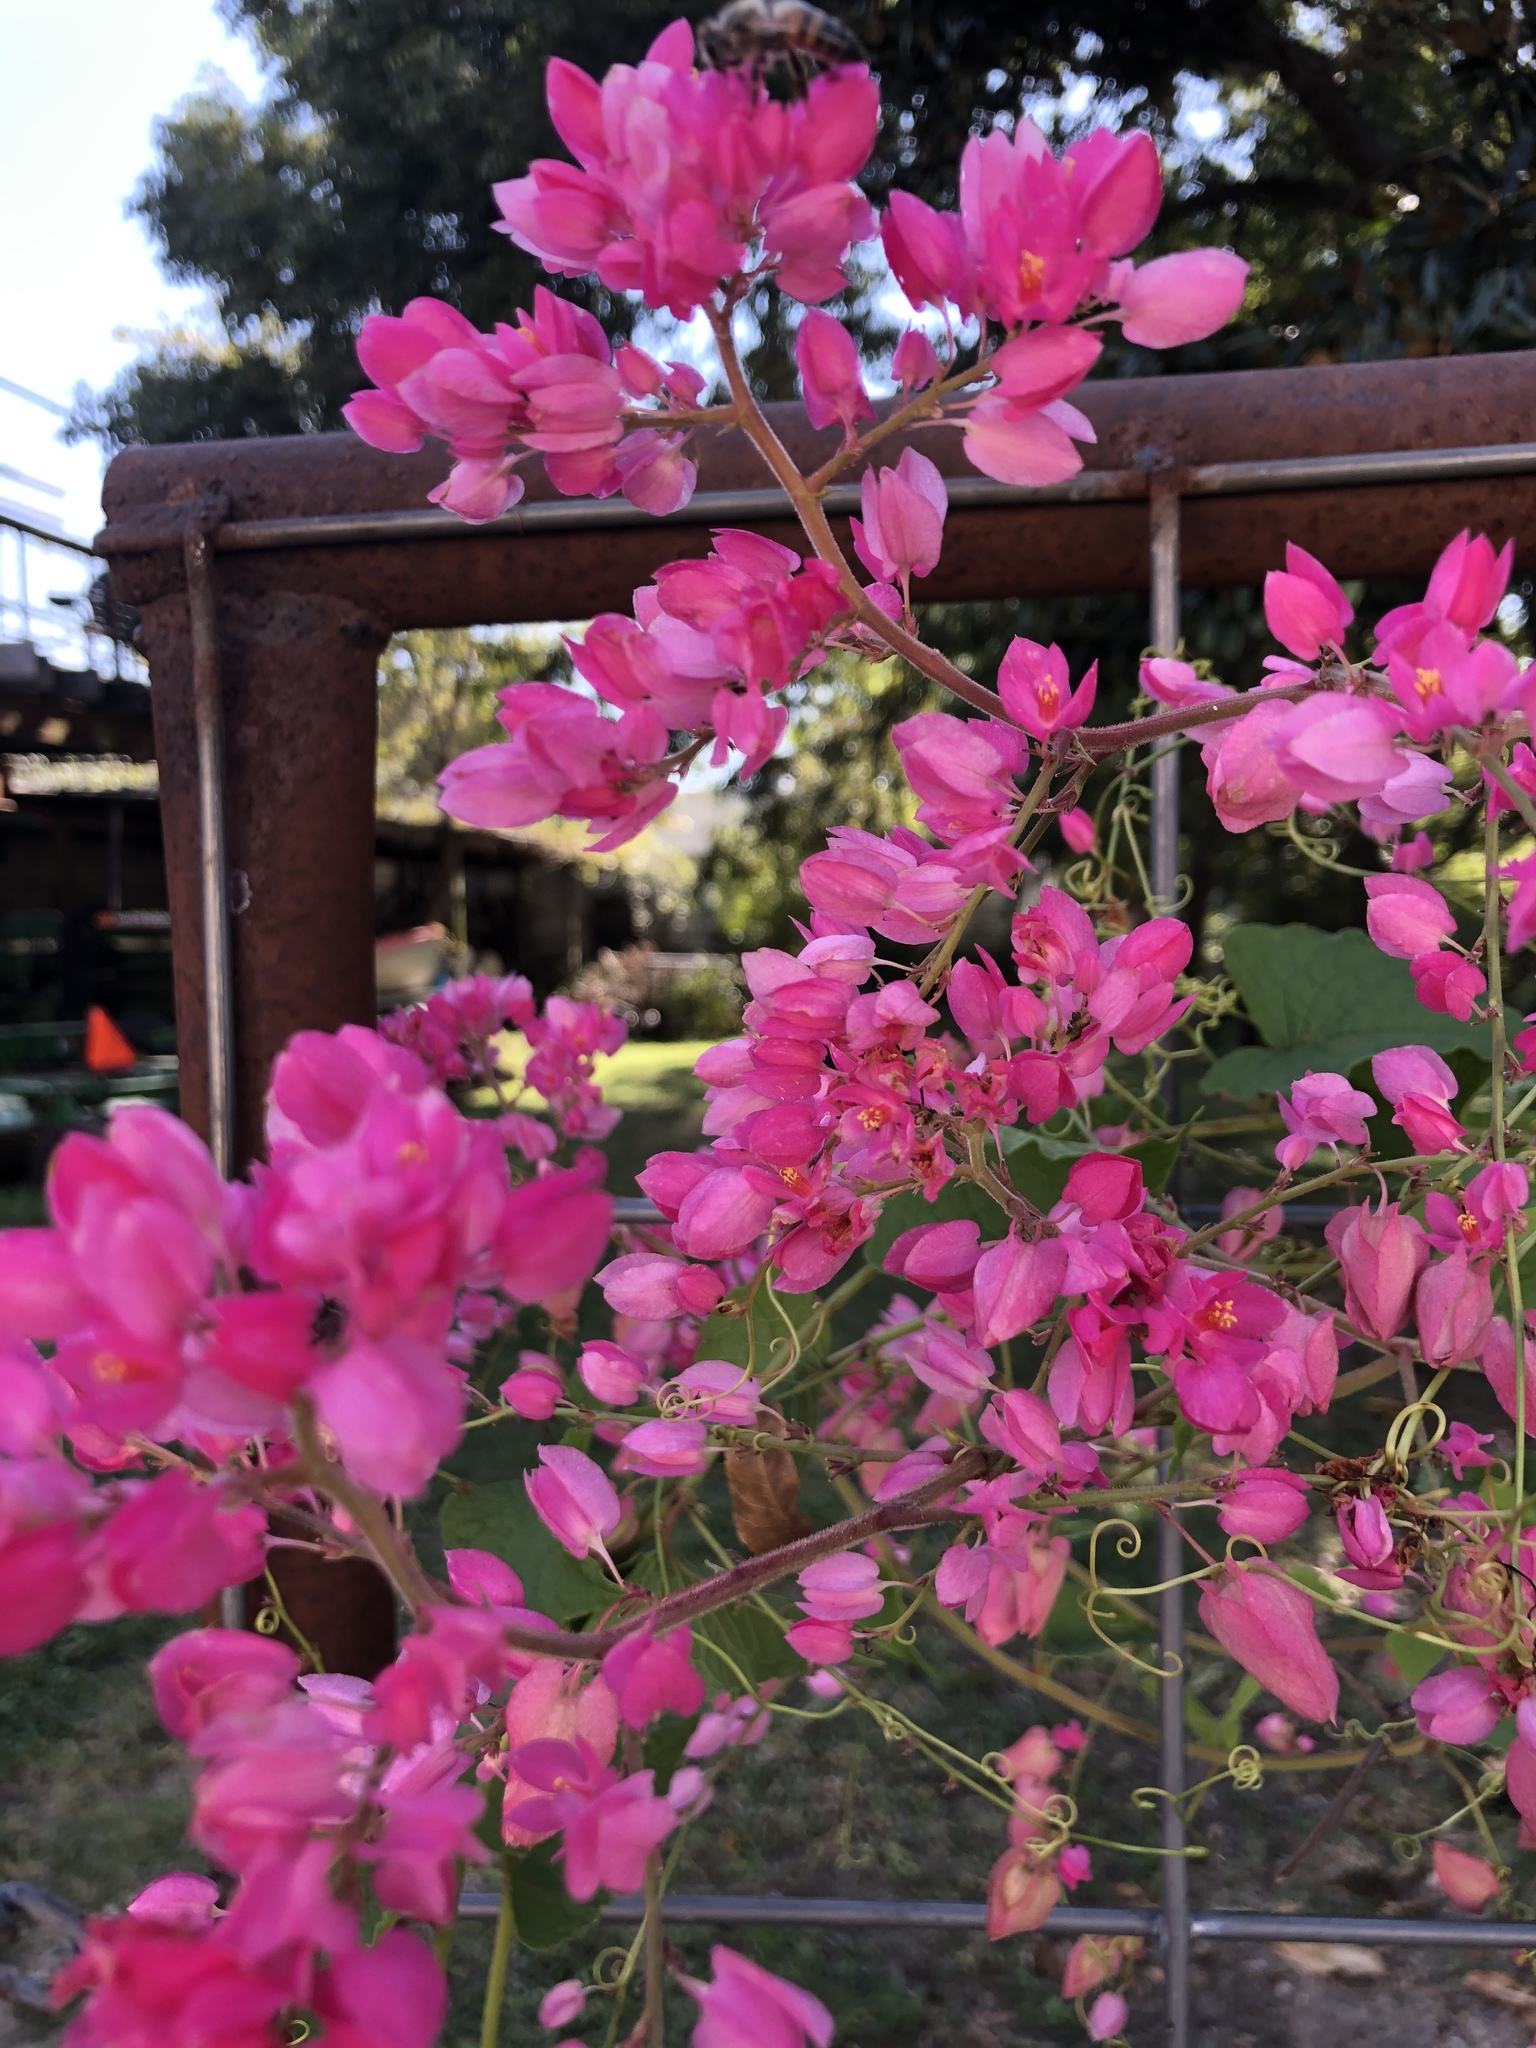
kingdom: Plantae
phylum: Tracheophyta
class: Magnoliopsida
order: Caryophyllales
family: Polygonaceae
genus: Antigonon
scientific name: Antigonon leptopus
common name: Coral vine
